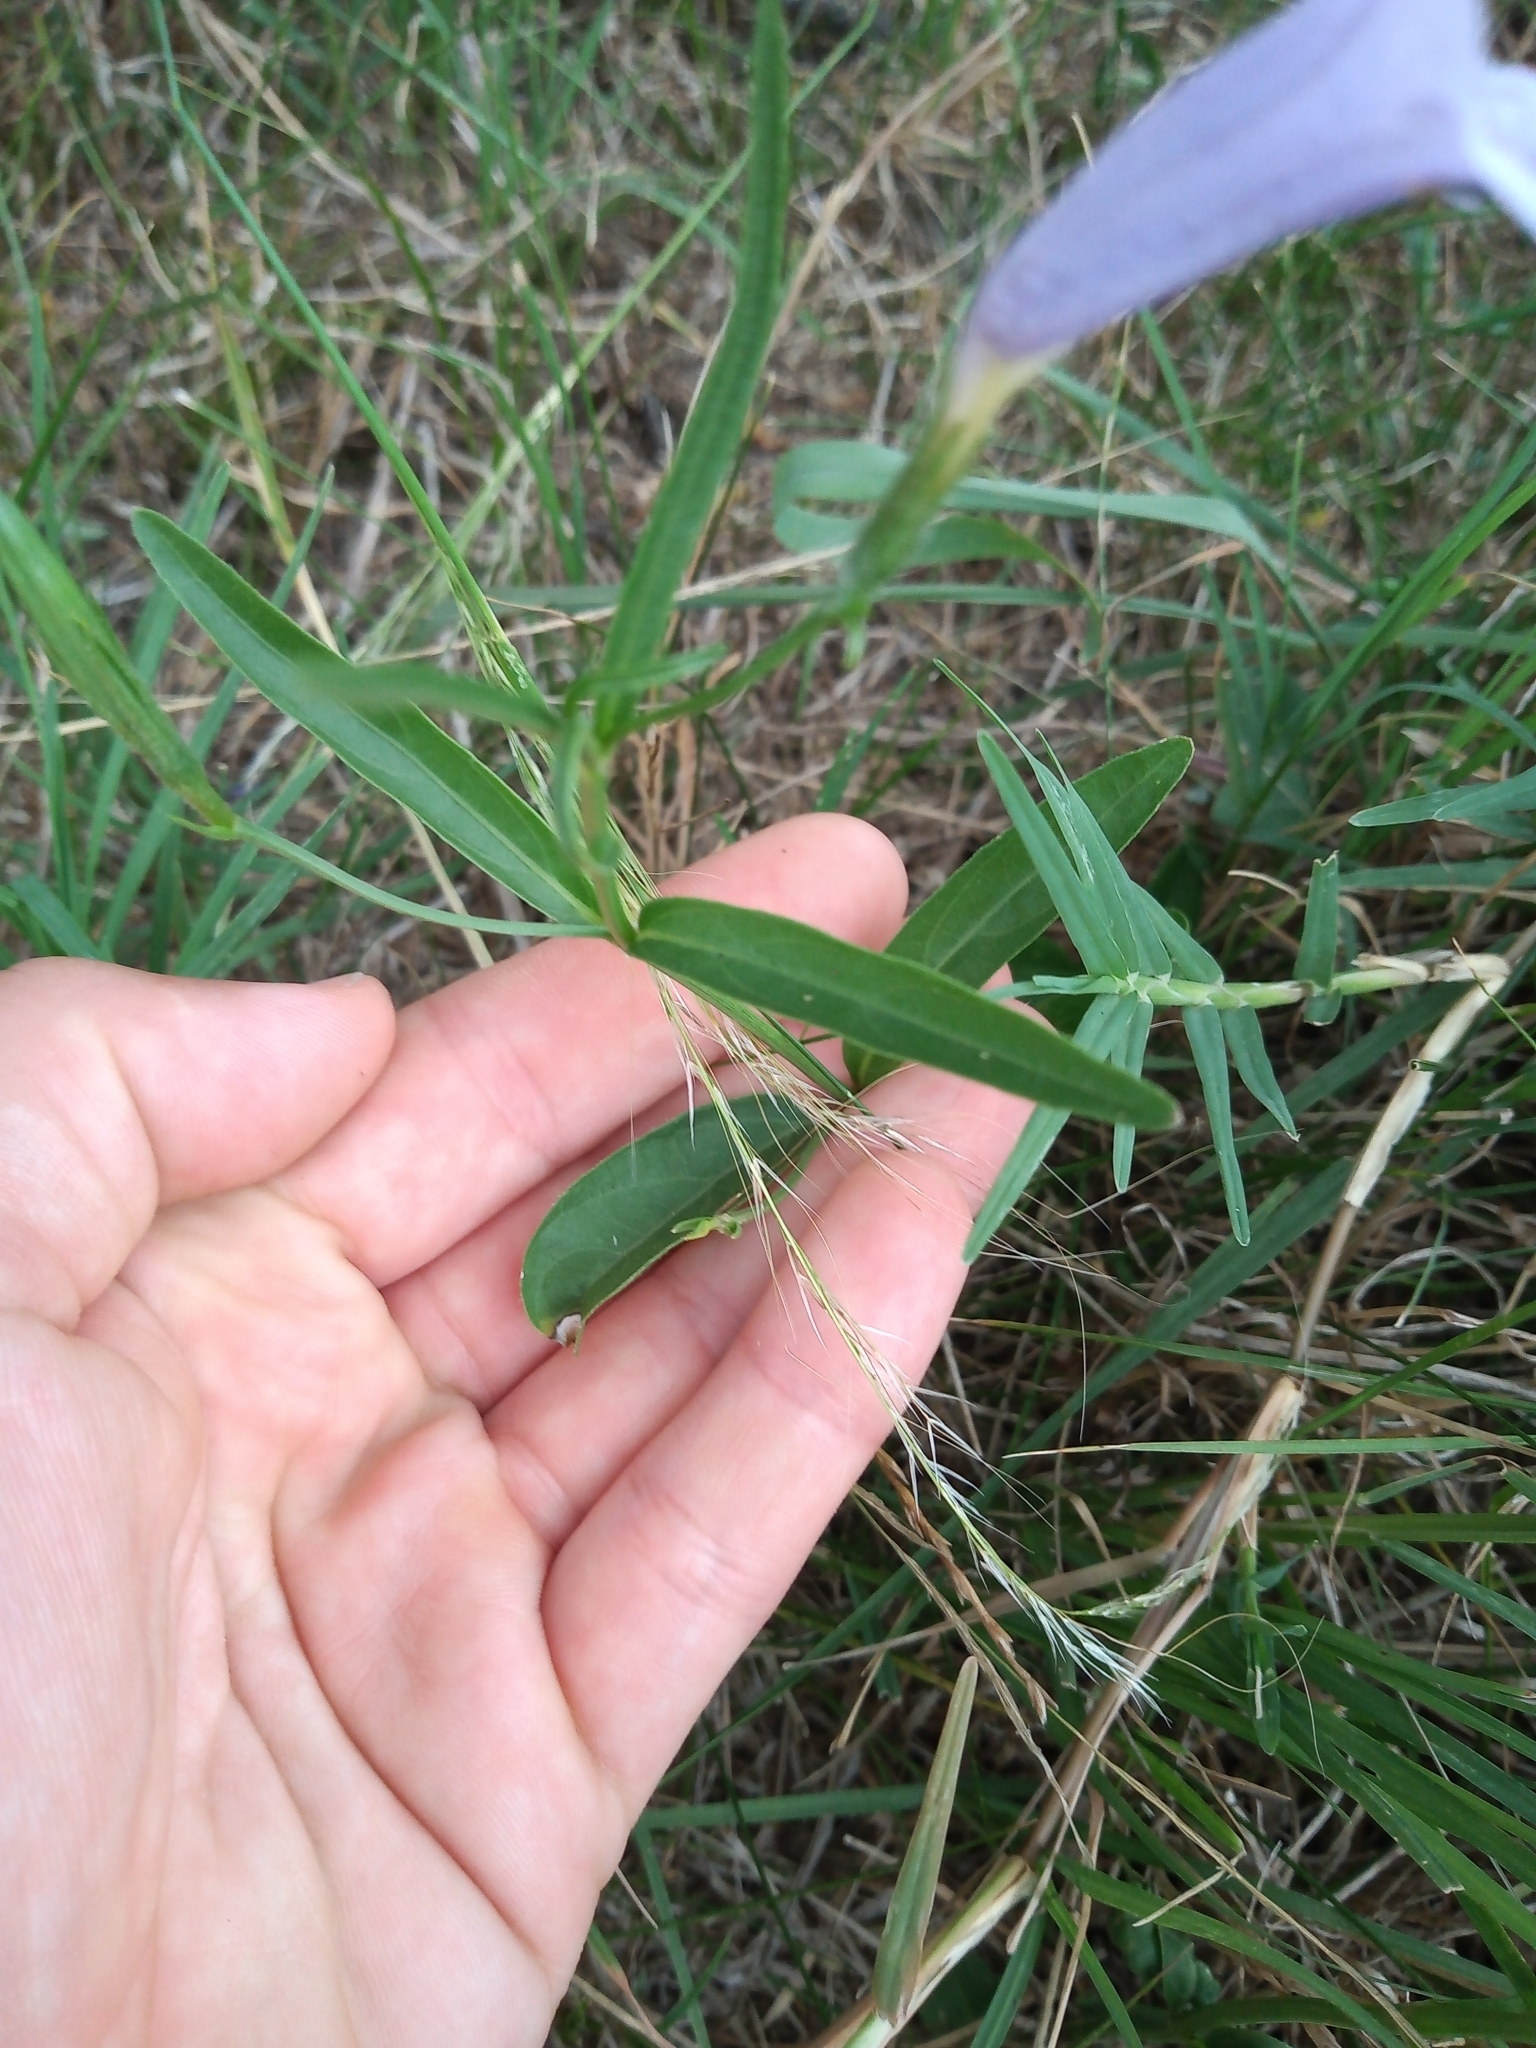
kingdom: Plantae
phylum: Tracheophyta
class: Magnoliopsida
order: Lamiales
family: Acanthaceae
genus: Ruellia
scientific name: Ruellia simplex
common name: Softseed wild petunia
